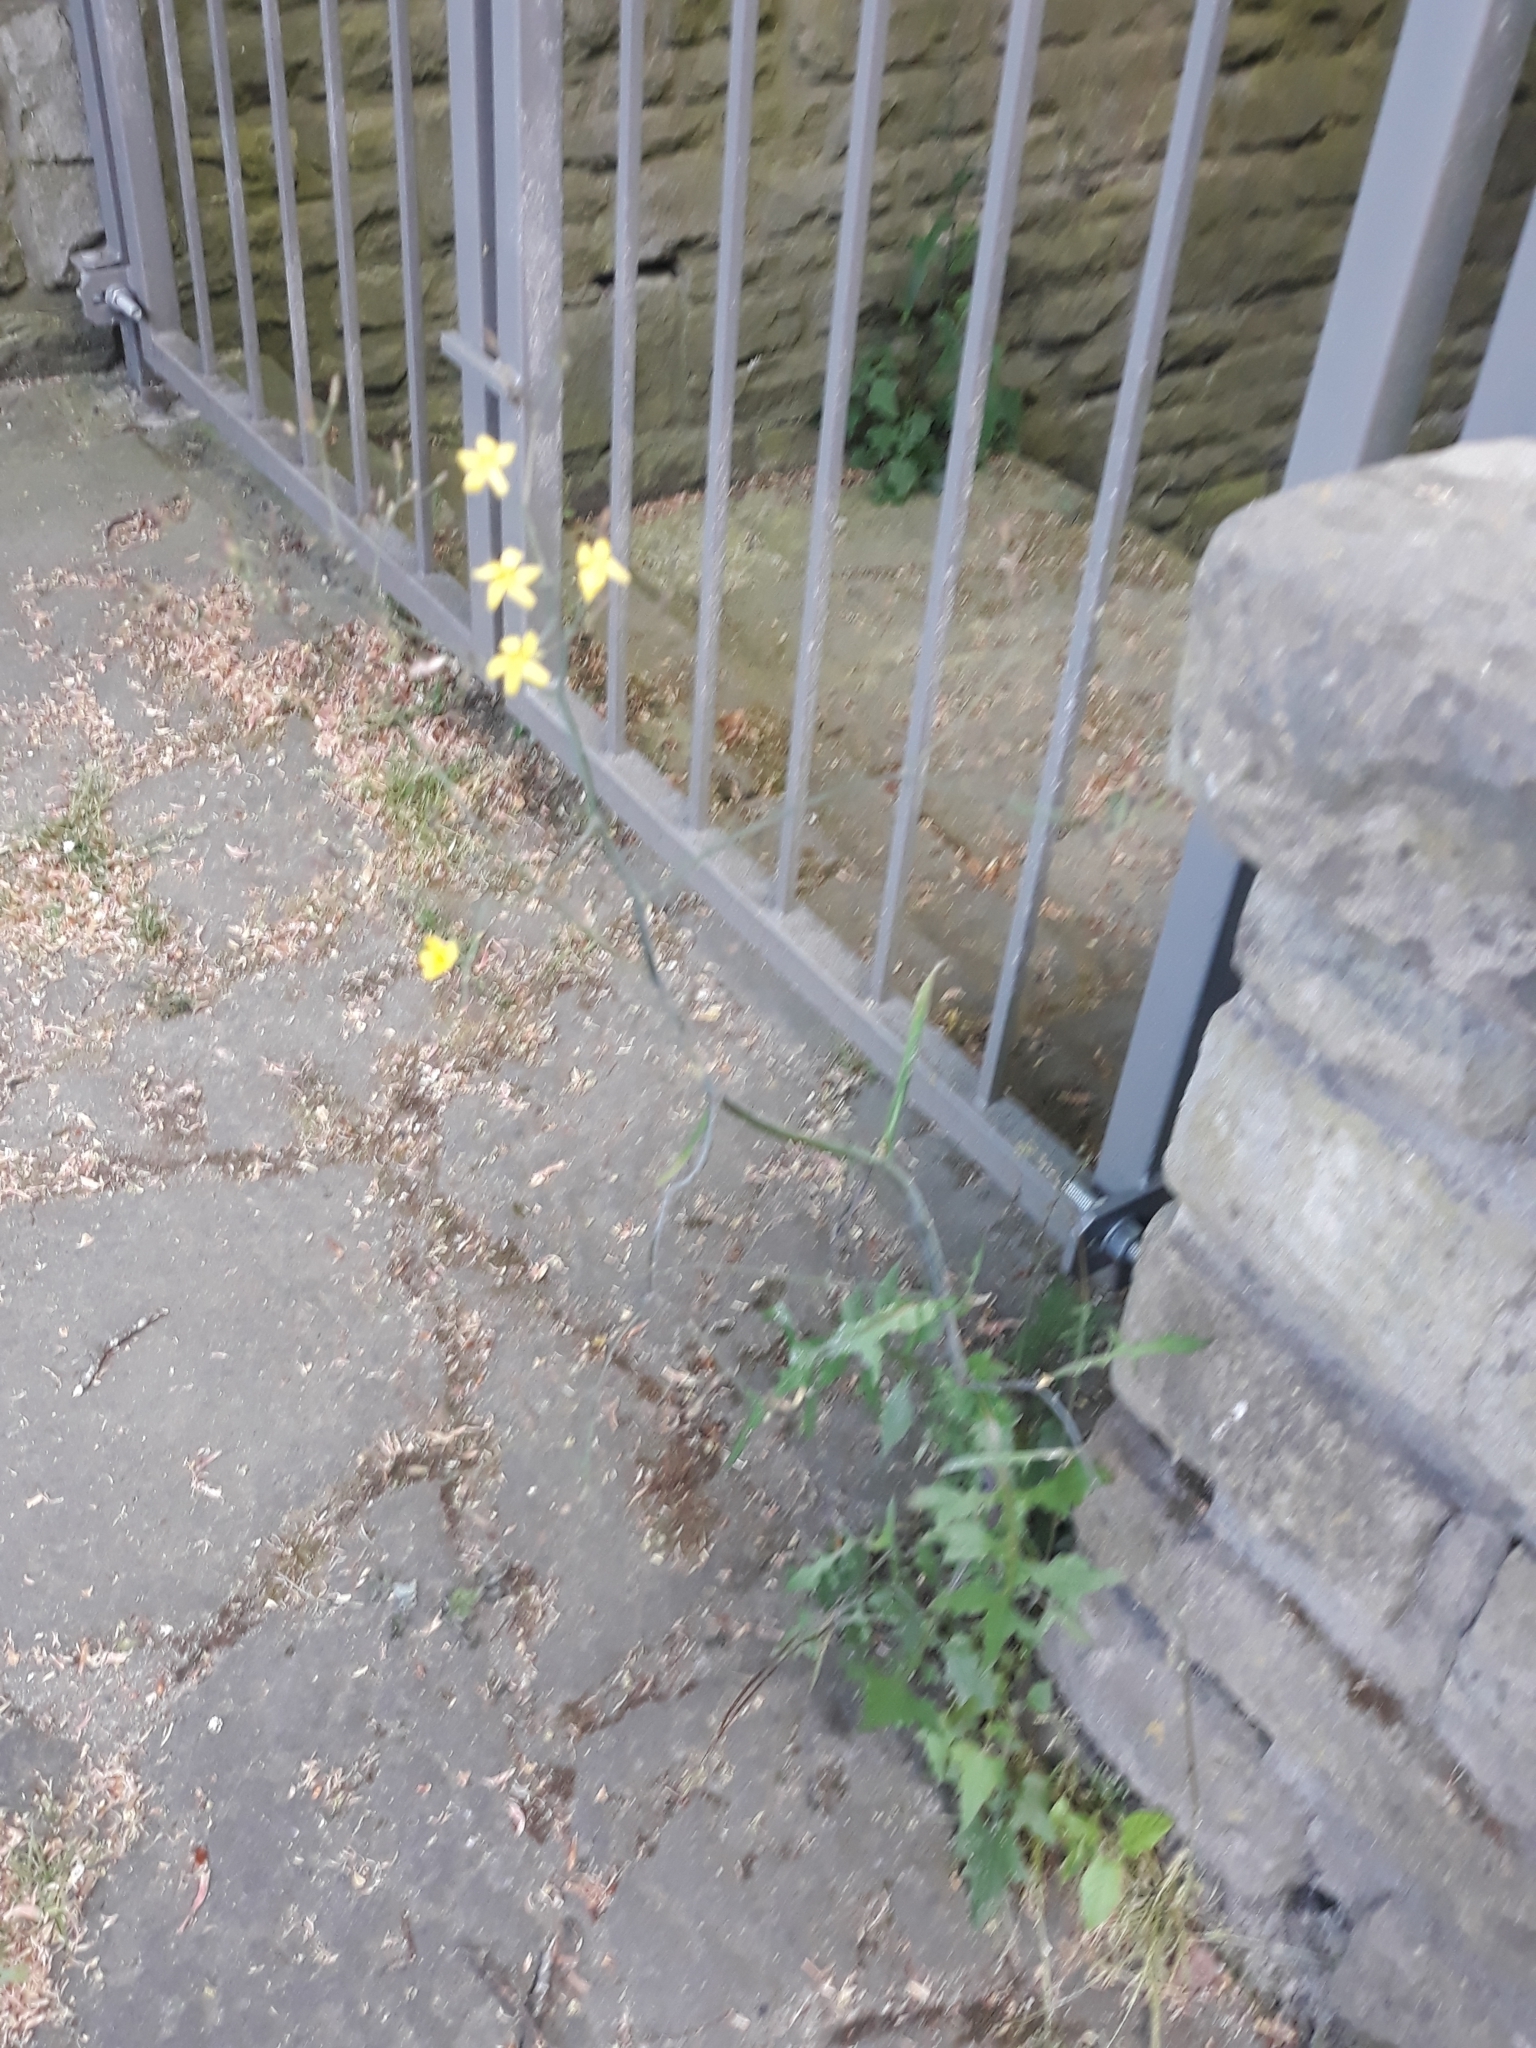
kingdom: Plantae
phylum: Tracheophyta
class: Magnoliopsida
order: Asterales
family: Asteraceae
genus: Mycelis
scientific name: Mycelis muralis
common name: Wall lettuce
